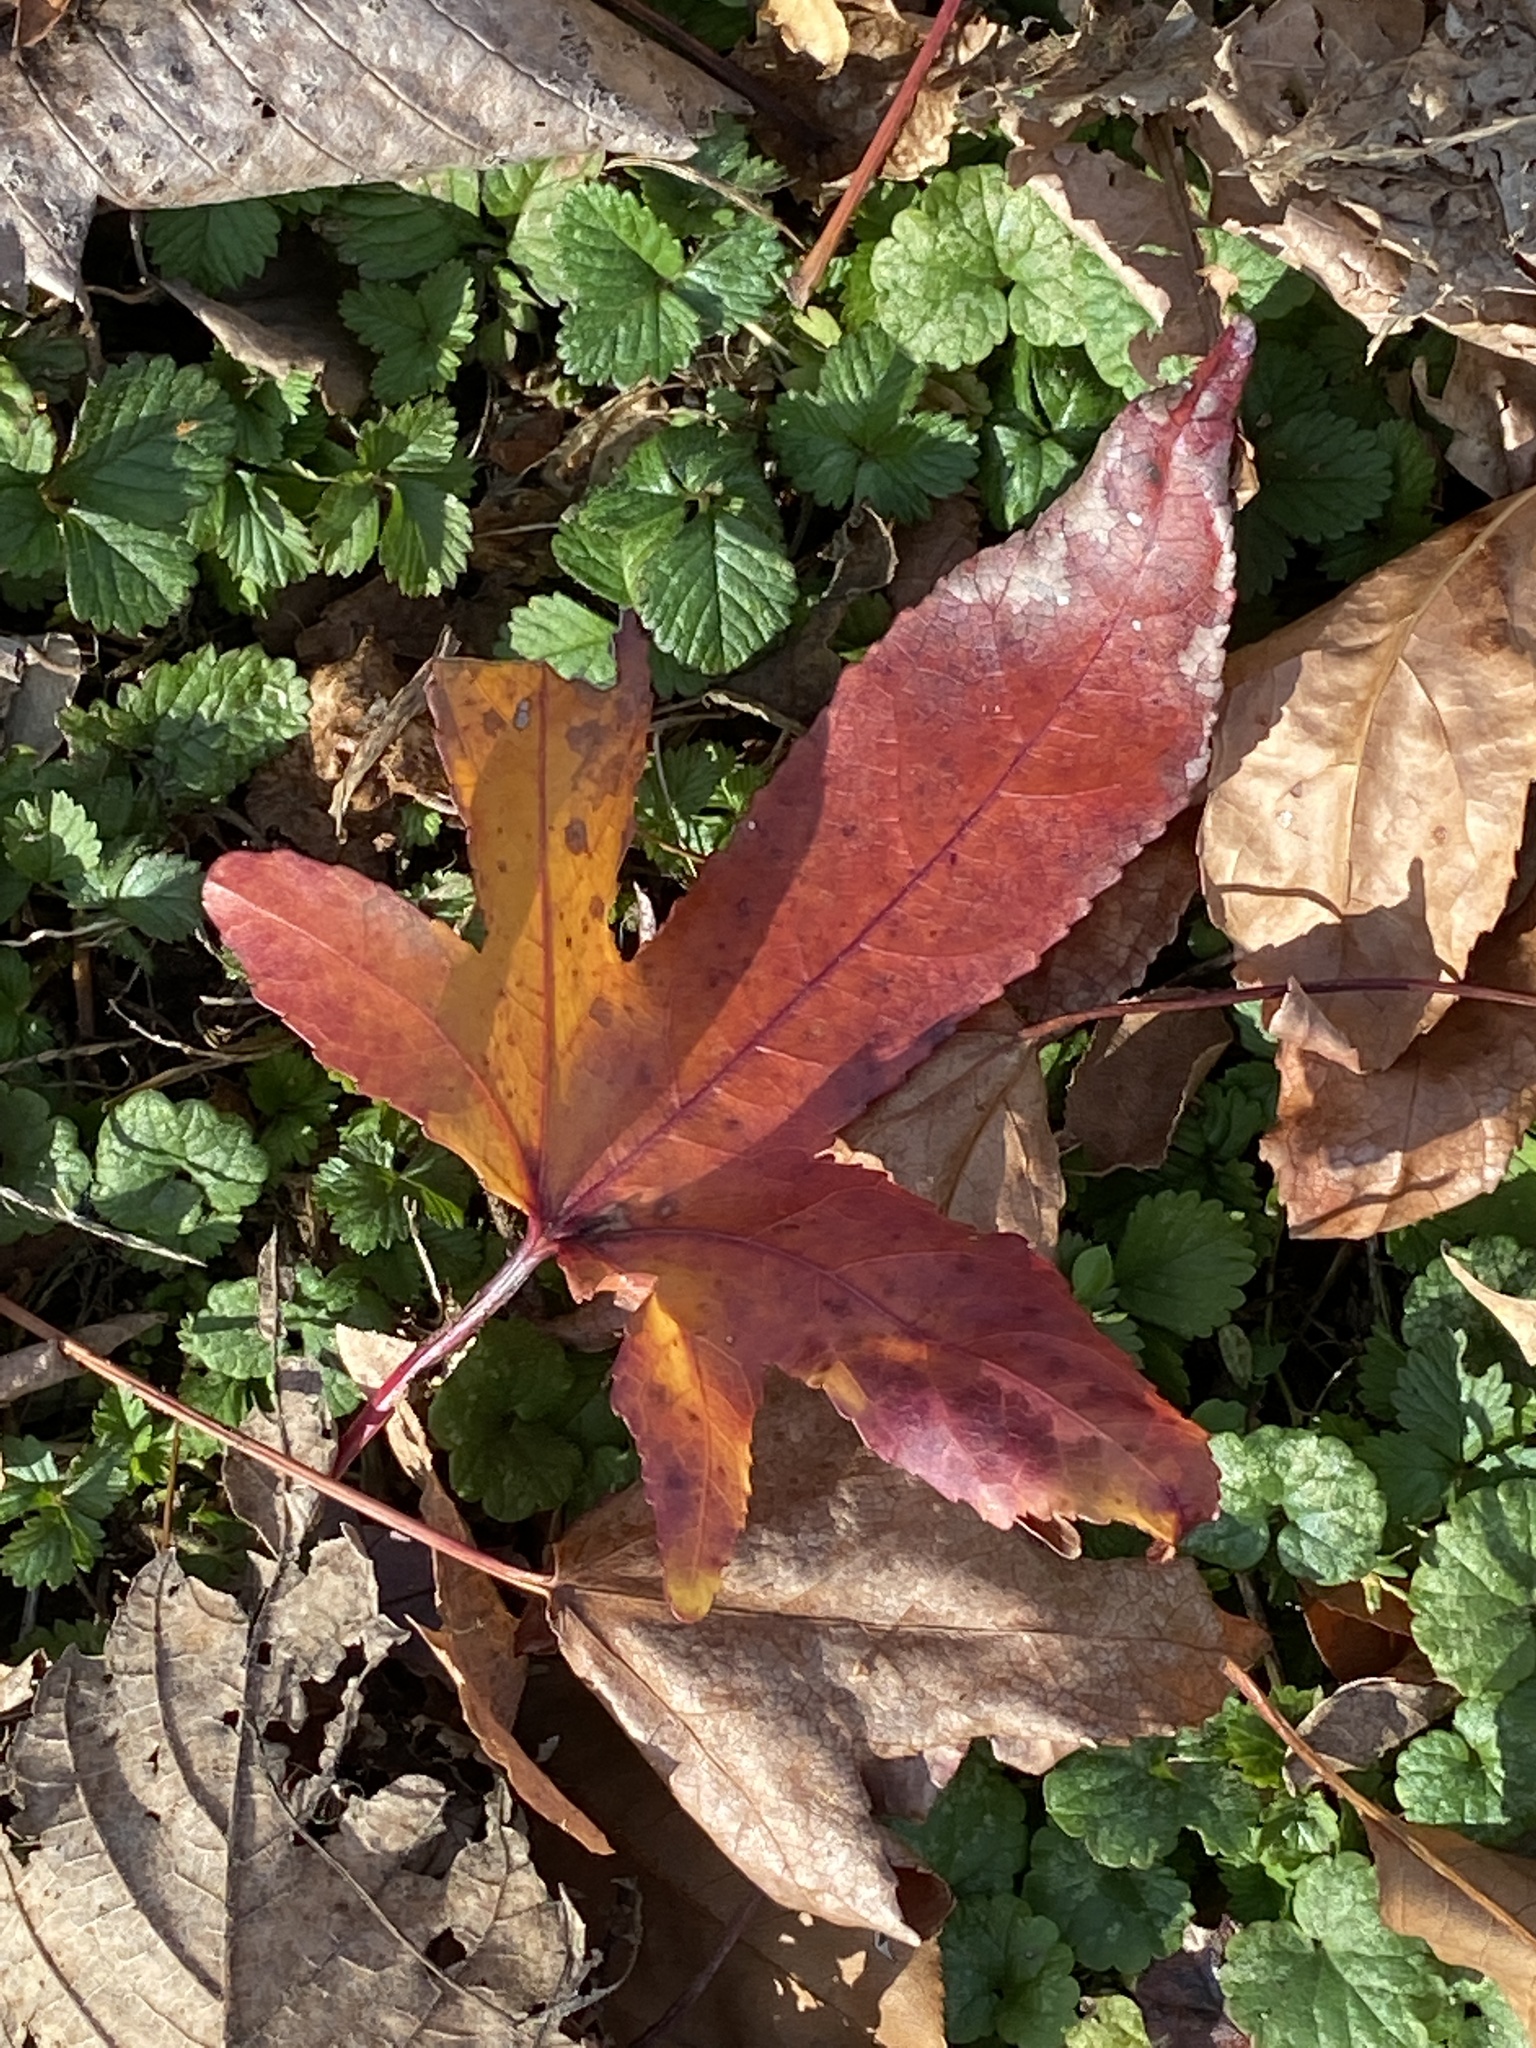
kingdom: Plantae
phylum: Tracheophyta
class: Magnoliopsida
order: Saxifragales
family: Altingiaceae
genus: Liquidambar
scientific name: Liquidambar styraciflua
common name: Sweet gum
